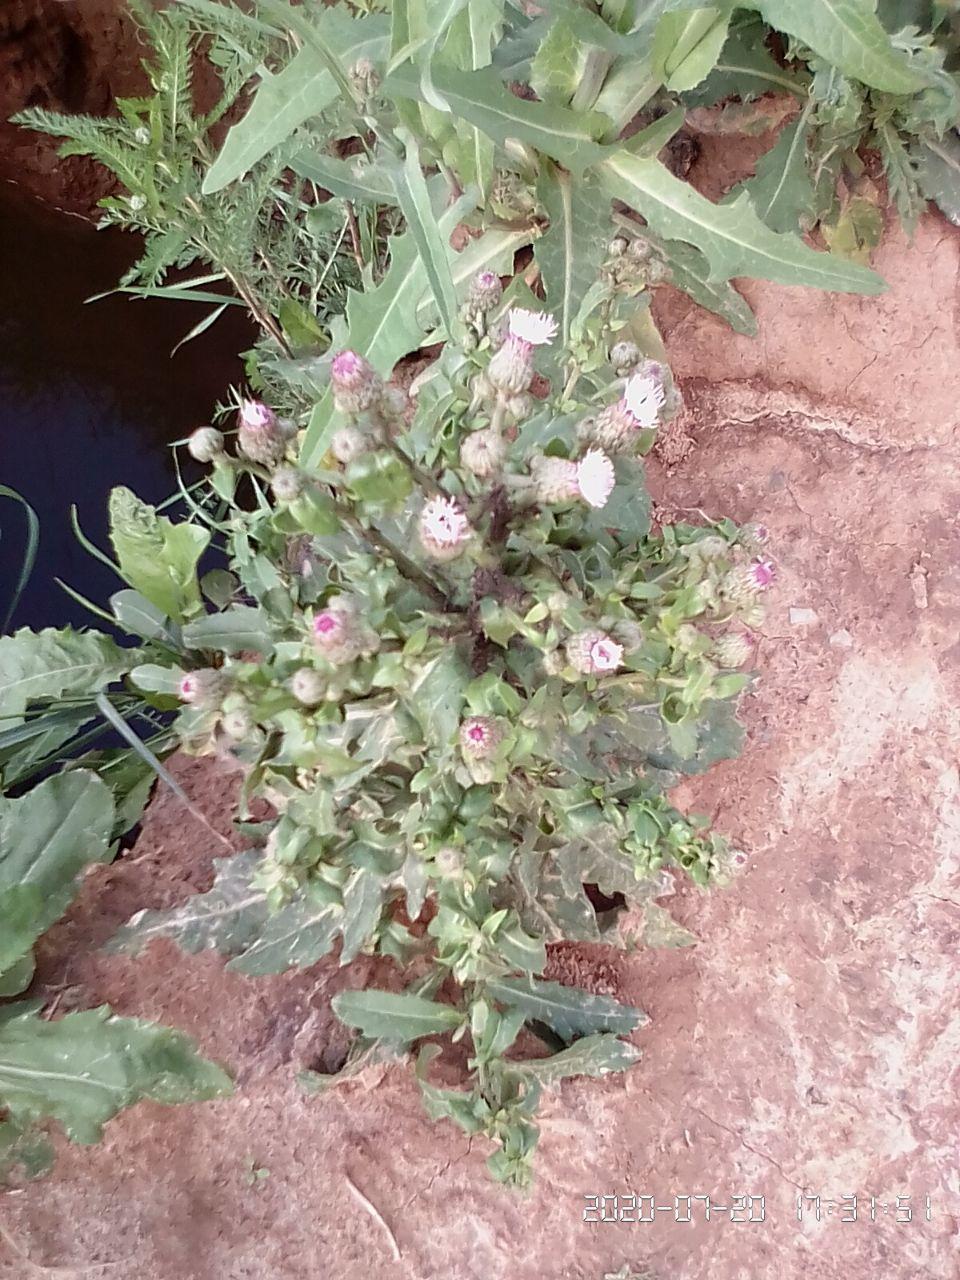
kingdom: Plantae
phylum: Tracheophyta
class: Magnoliopsida
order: Asterales
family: Asteraceae
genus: Cirsium
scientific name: Cirsium arvense
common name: Creeping thistle
